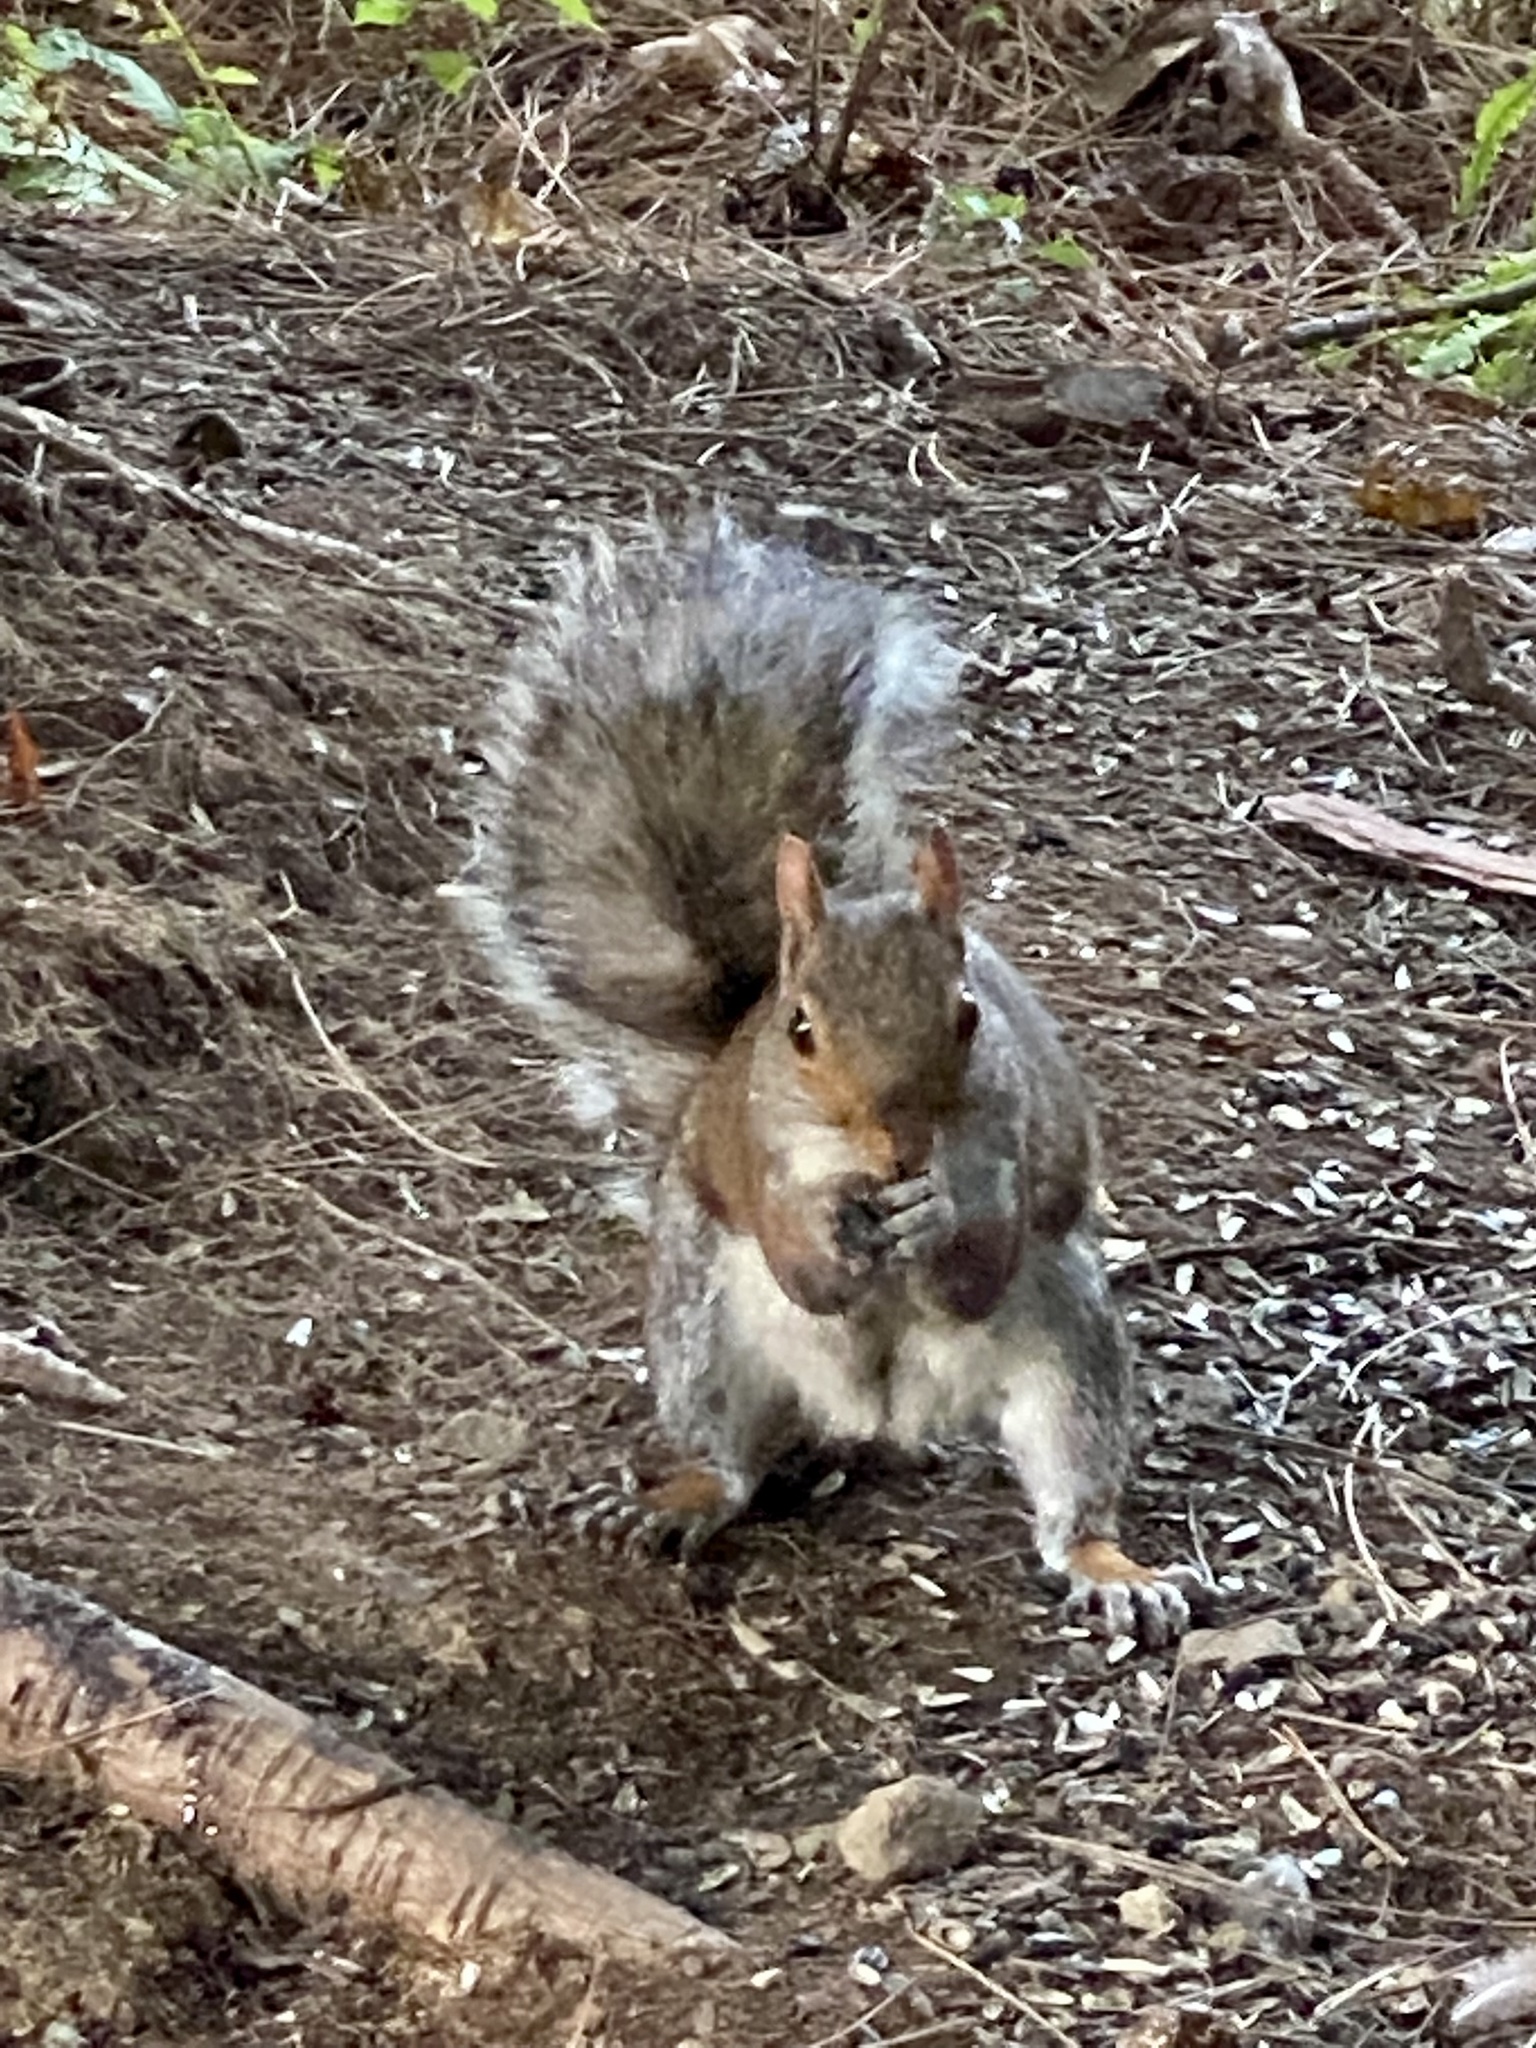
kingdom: Animalia
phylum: Chordata
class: Mammalia
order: Rodentia
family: Sciuridae
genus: Sciurus
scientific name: Sciurus carolinensis
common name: Eastern gray squirrel
